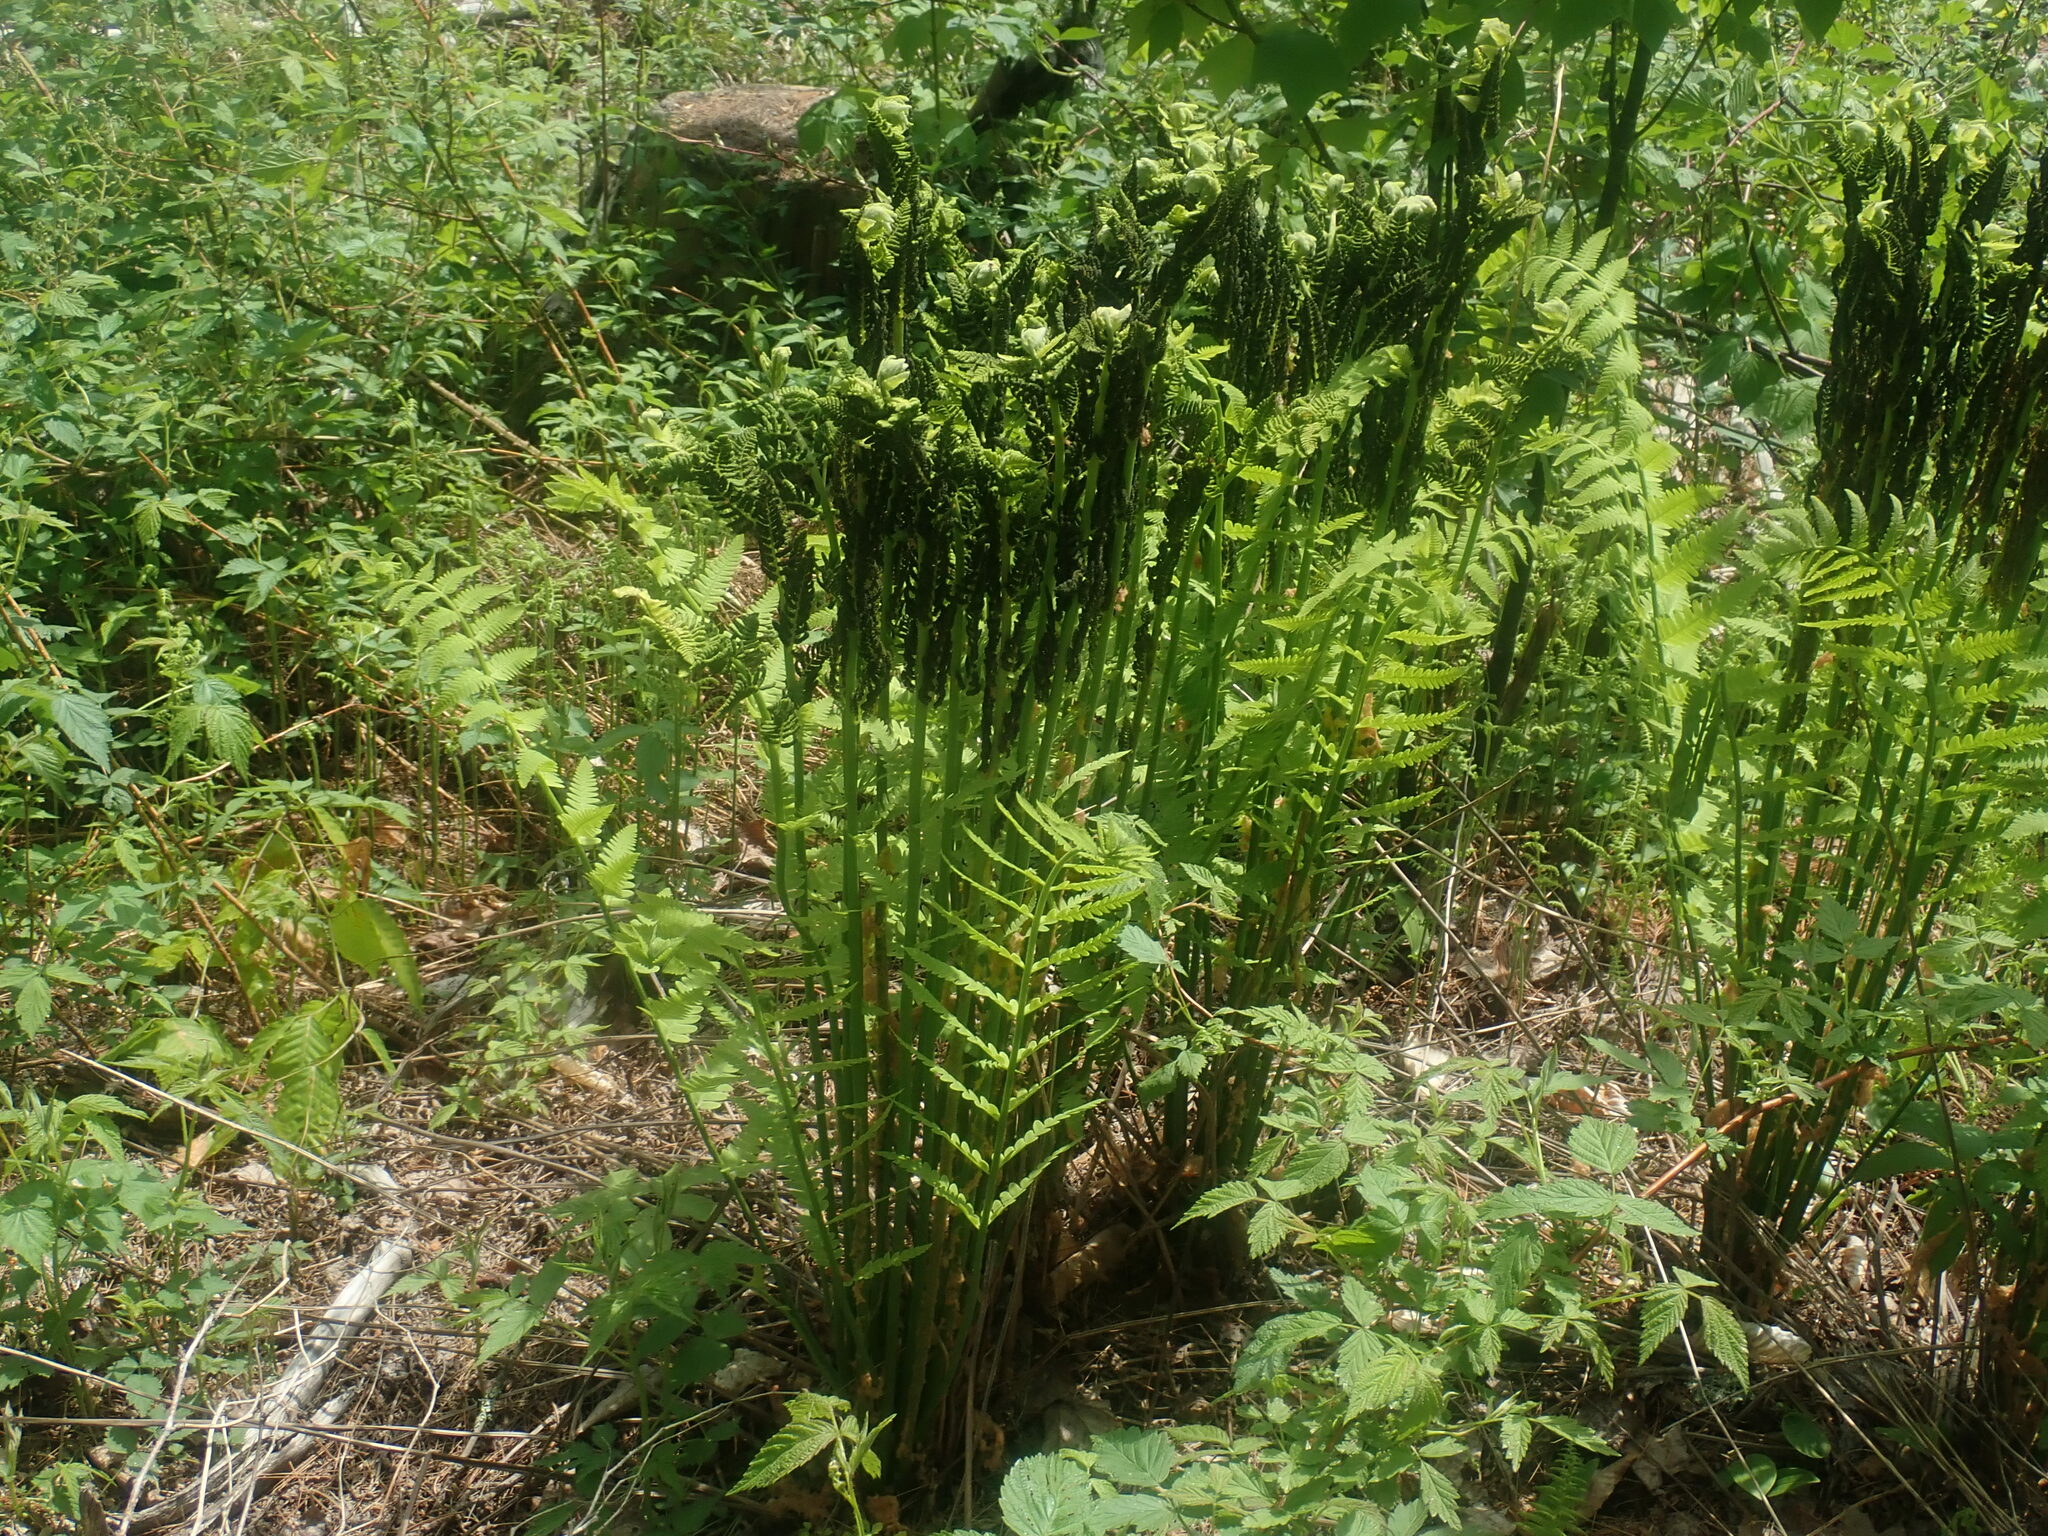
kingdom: Plantae
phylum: Tracheophyta
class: Polypodiopsida
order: Osmundales
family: Osmundaceae
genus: Claytosmunda
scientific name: Claytosmunda claytoniana
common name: Clayton's fern
